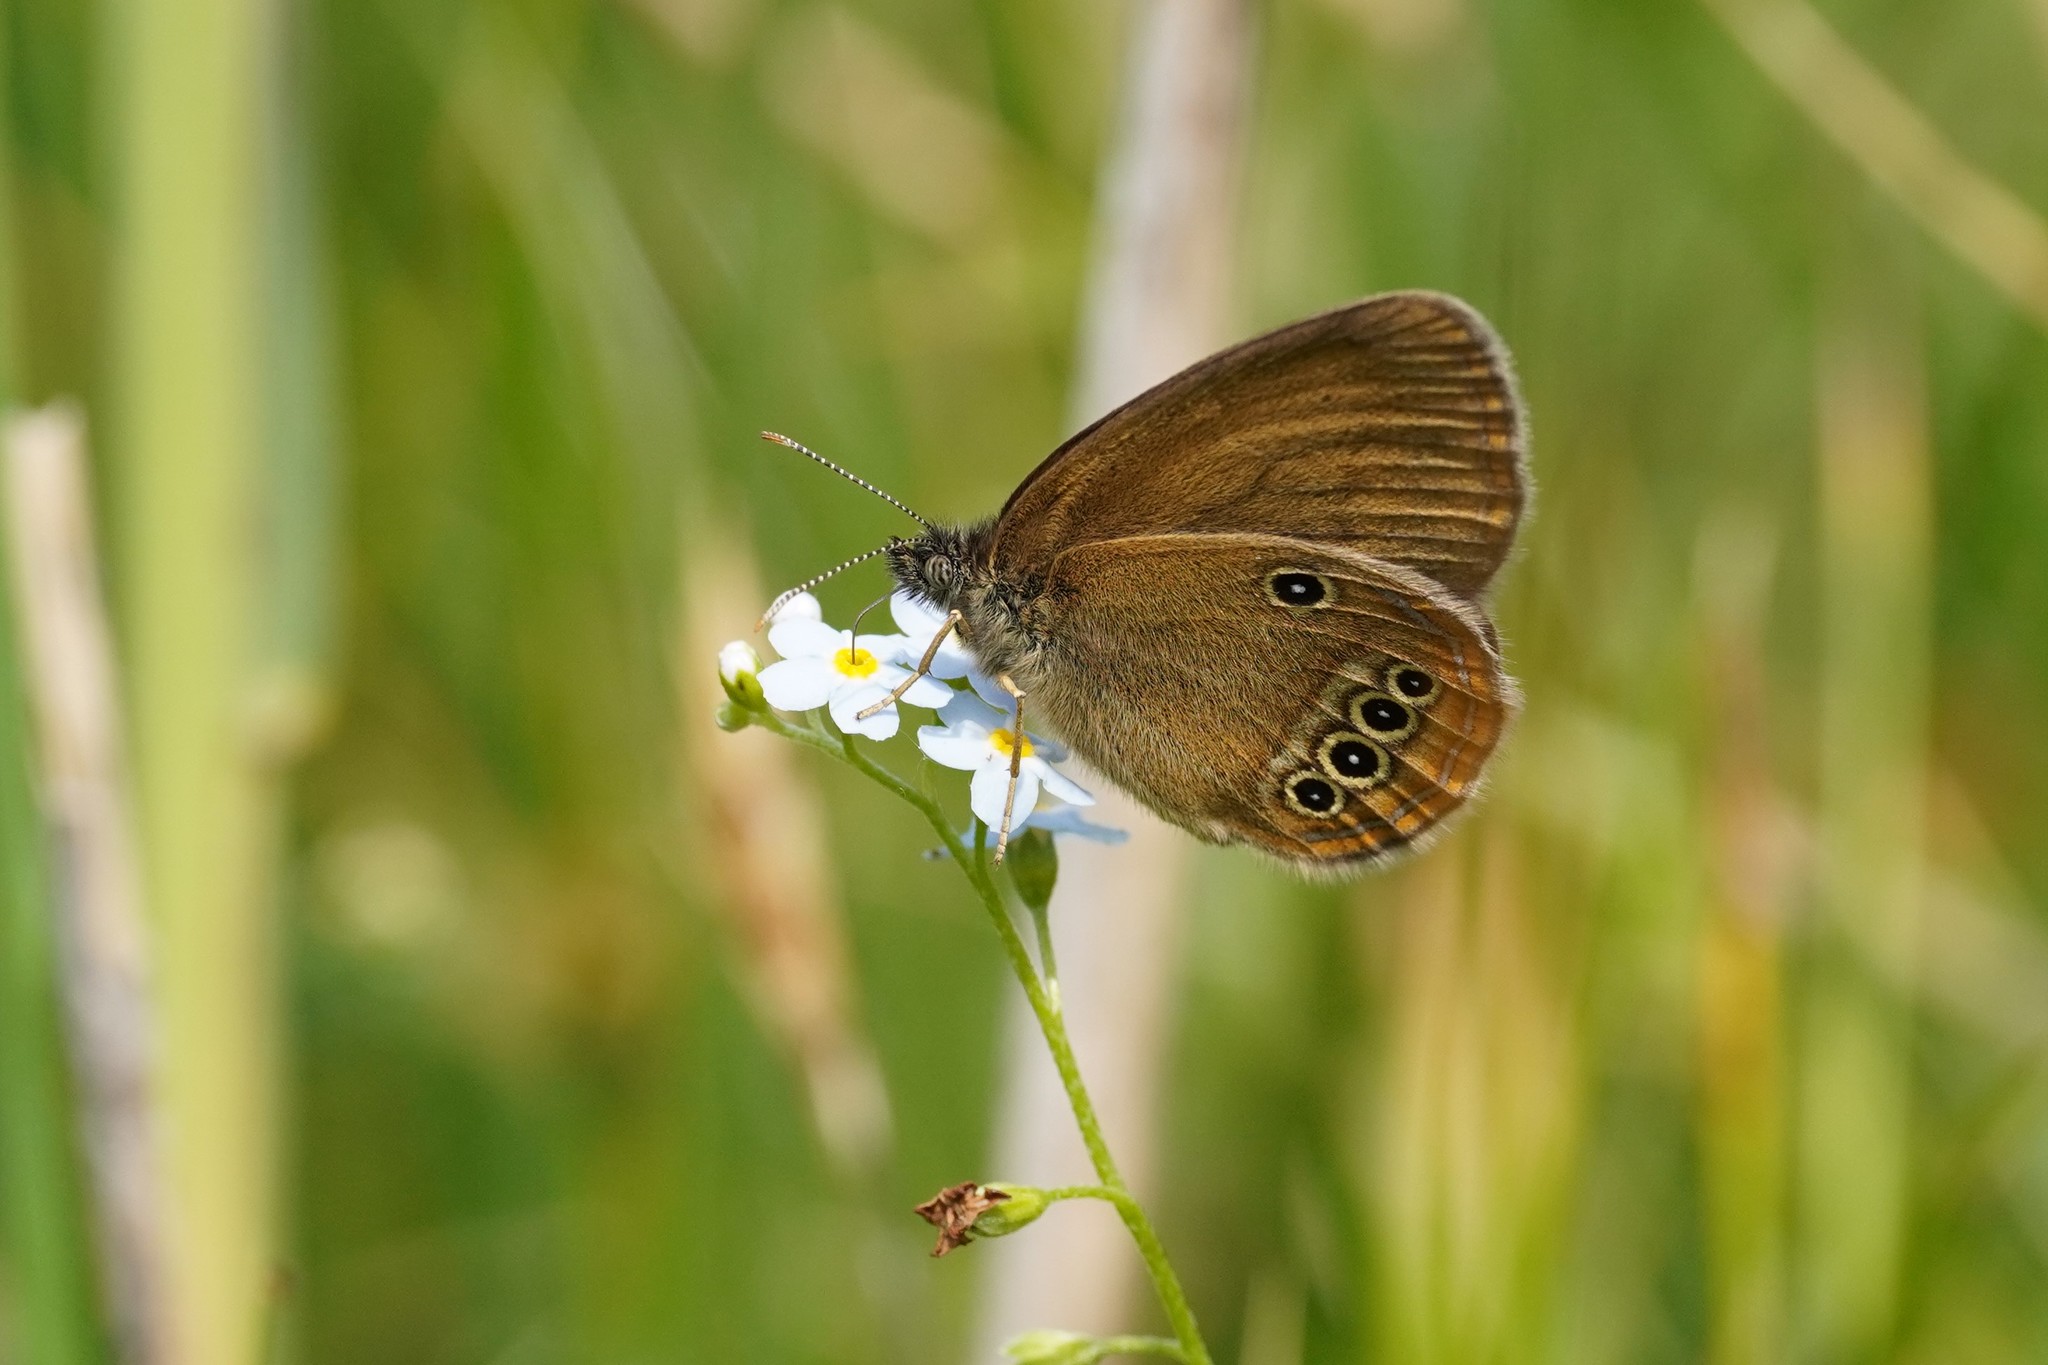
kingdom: Animalia
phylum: Arthropoda
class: Insecta
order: Lepidoptera
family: Nymphalidae
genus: Coenonympha
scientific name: Coenonympha oedippus
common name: False ringlet
